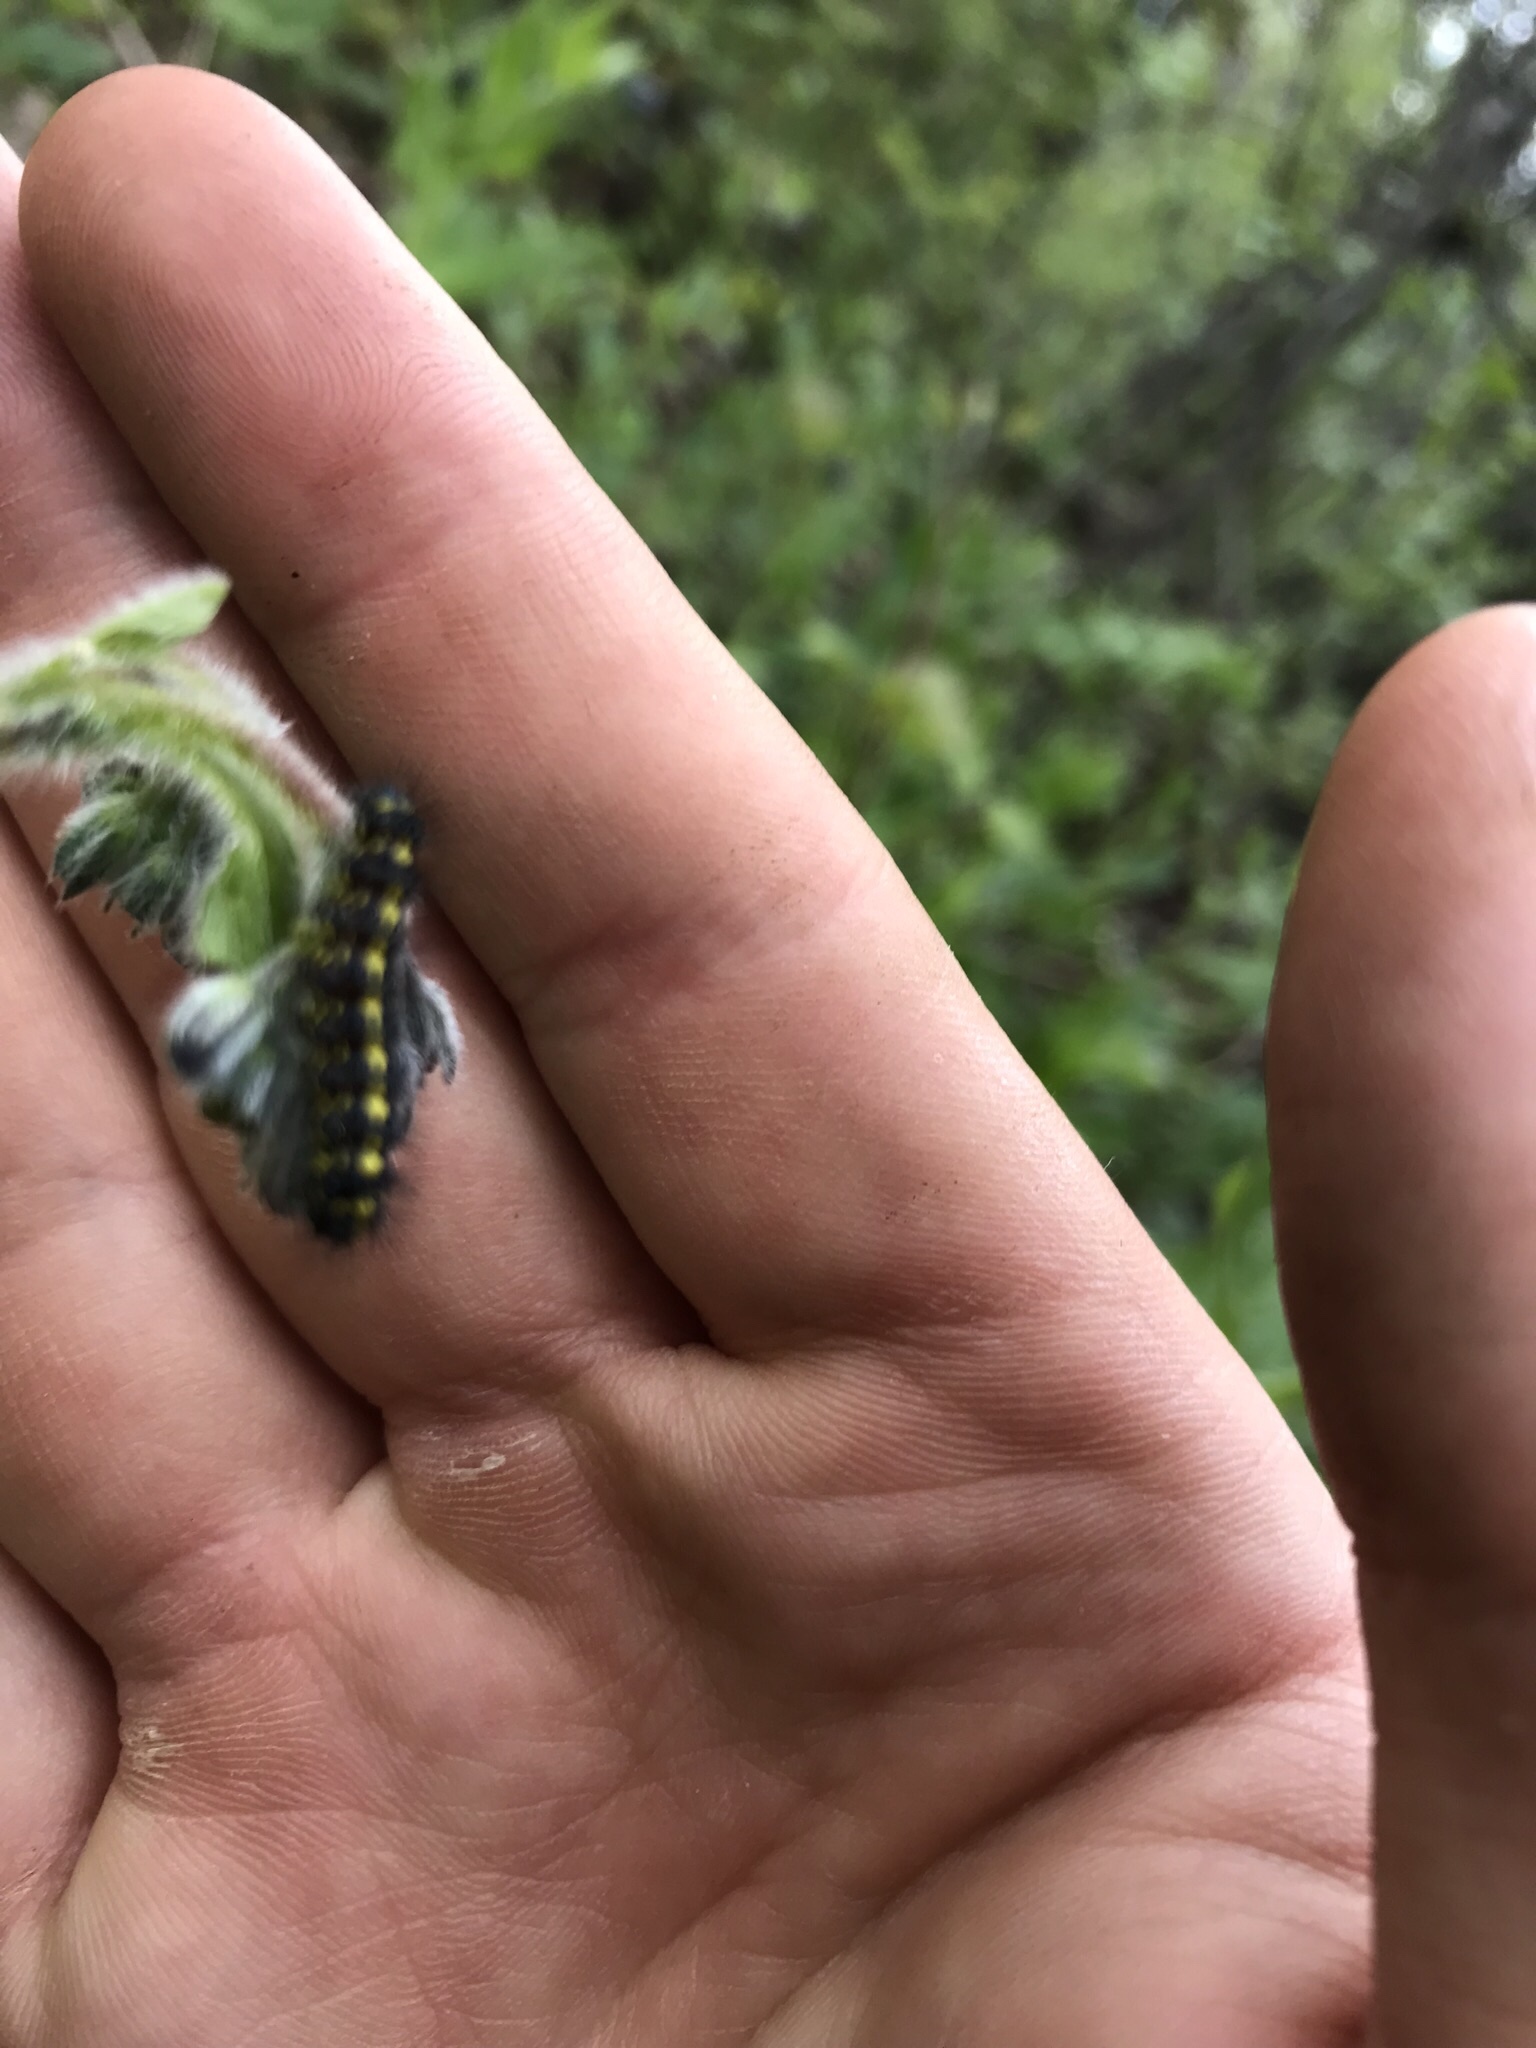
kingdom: Animalia
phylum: Arthropoda
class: Insecta
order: Lepidoptera
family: Erebidae
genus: Gnophaela
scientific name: Gnophaela vermiculata
